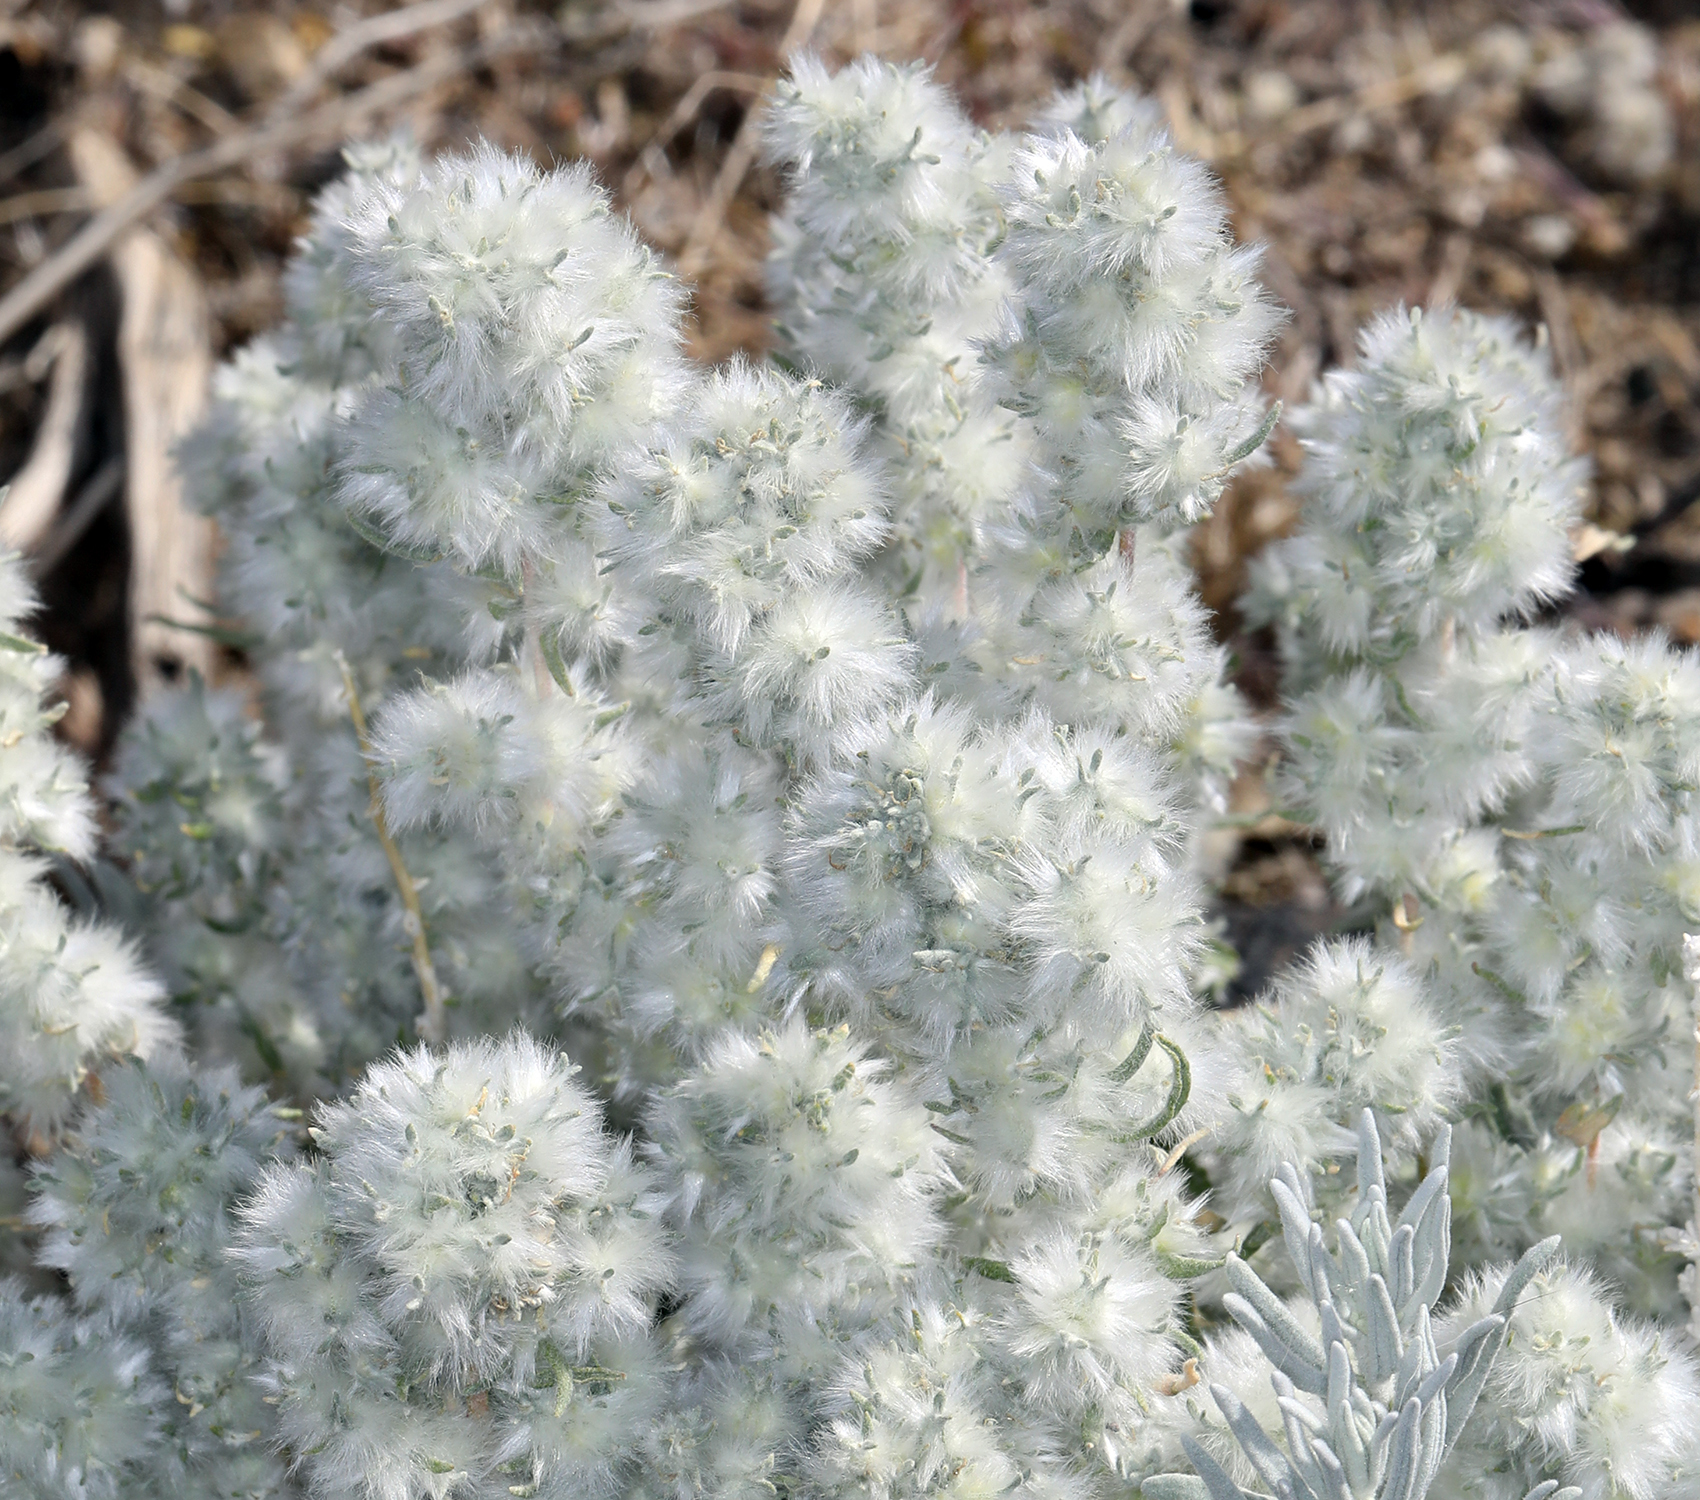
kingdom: Plantae
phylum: Tracheophyta
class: Magnoliopsida
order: Caryophyllales
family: Amaranthaceae
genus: Krascheninnikovia
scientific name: Krascheninnikovia lanata
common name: Winterfat
